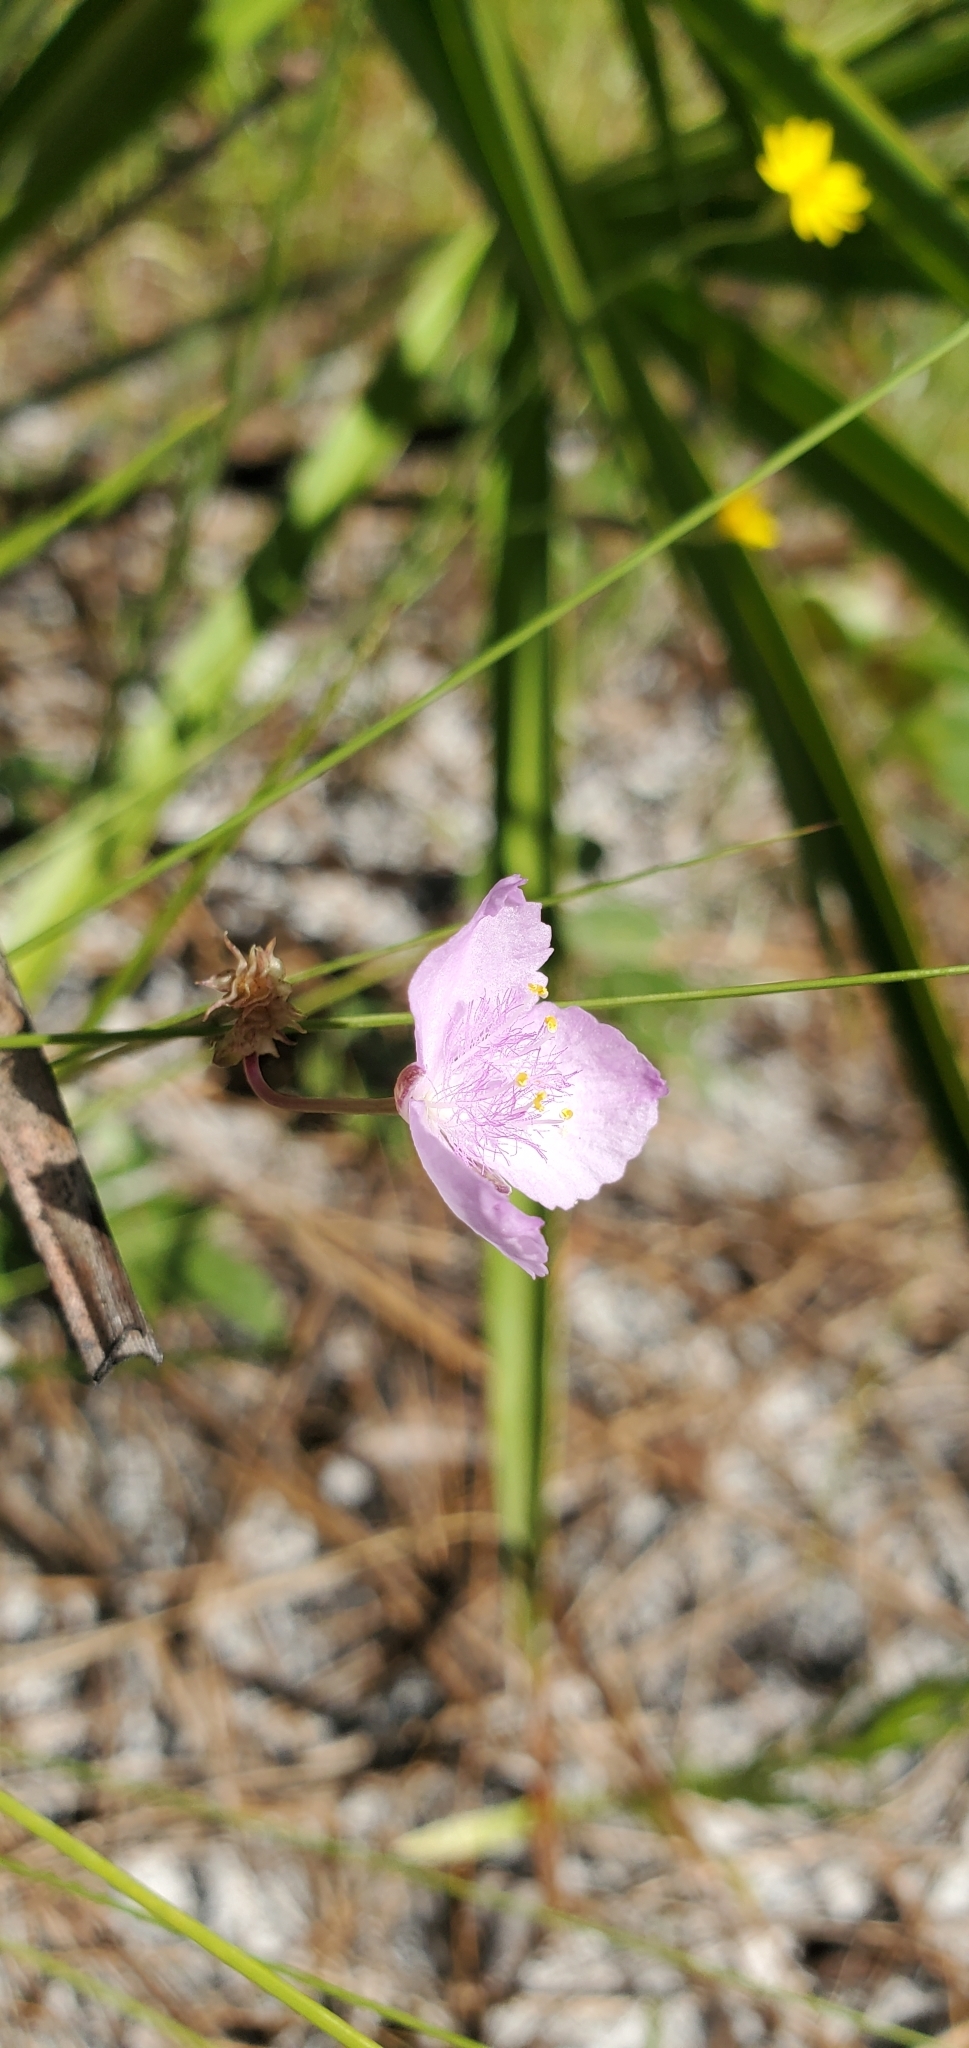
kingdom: Plantae
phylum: Tracheophyta
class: Liliopsida
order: Commelinales
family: Commelinaceae
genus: Callisia
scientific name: Callisia ornata
